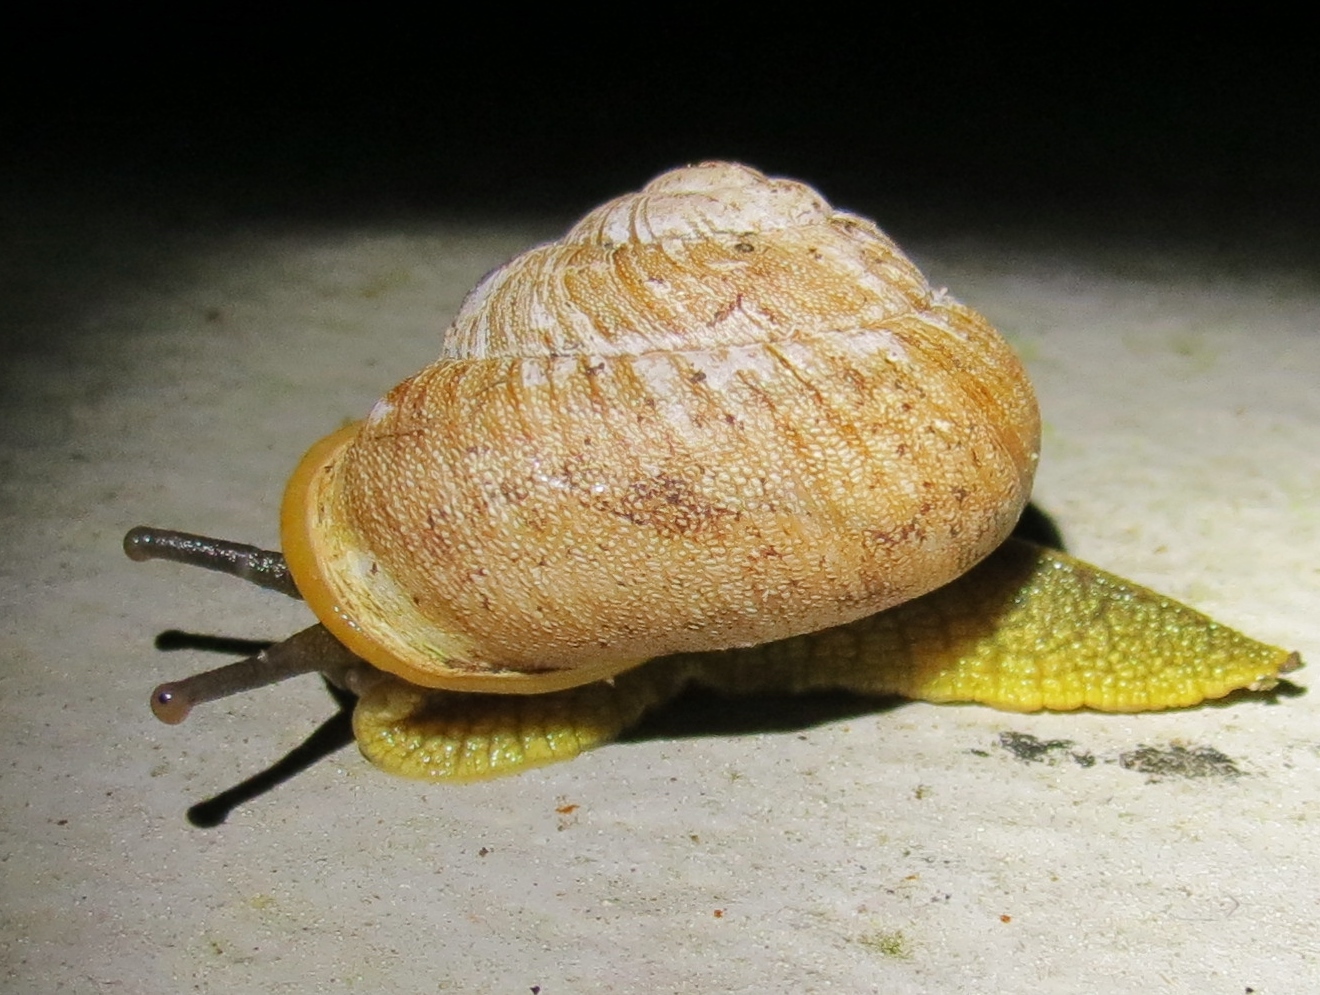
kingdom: Animalia
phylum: Mollusca
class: Gastropoda
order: Stylommatophora
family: Sagdidae
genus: Granodomus
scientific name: Granodomus lima
